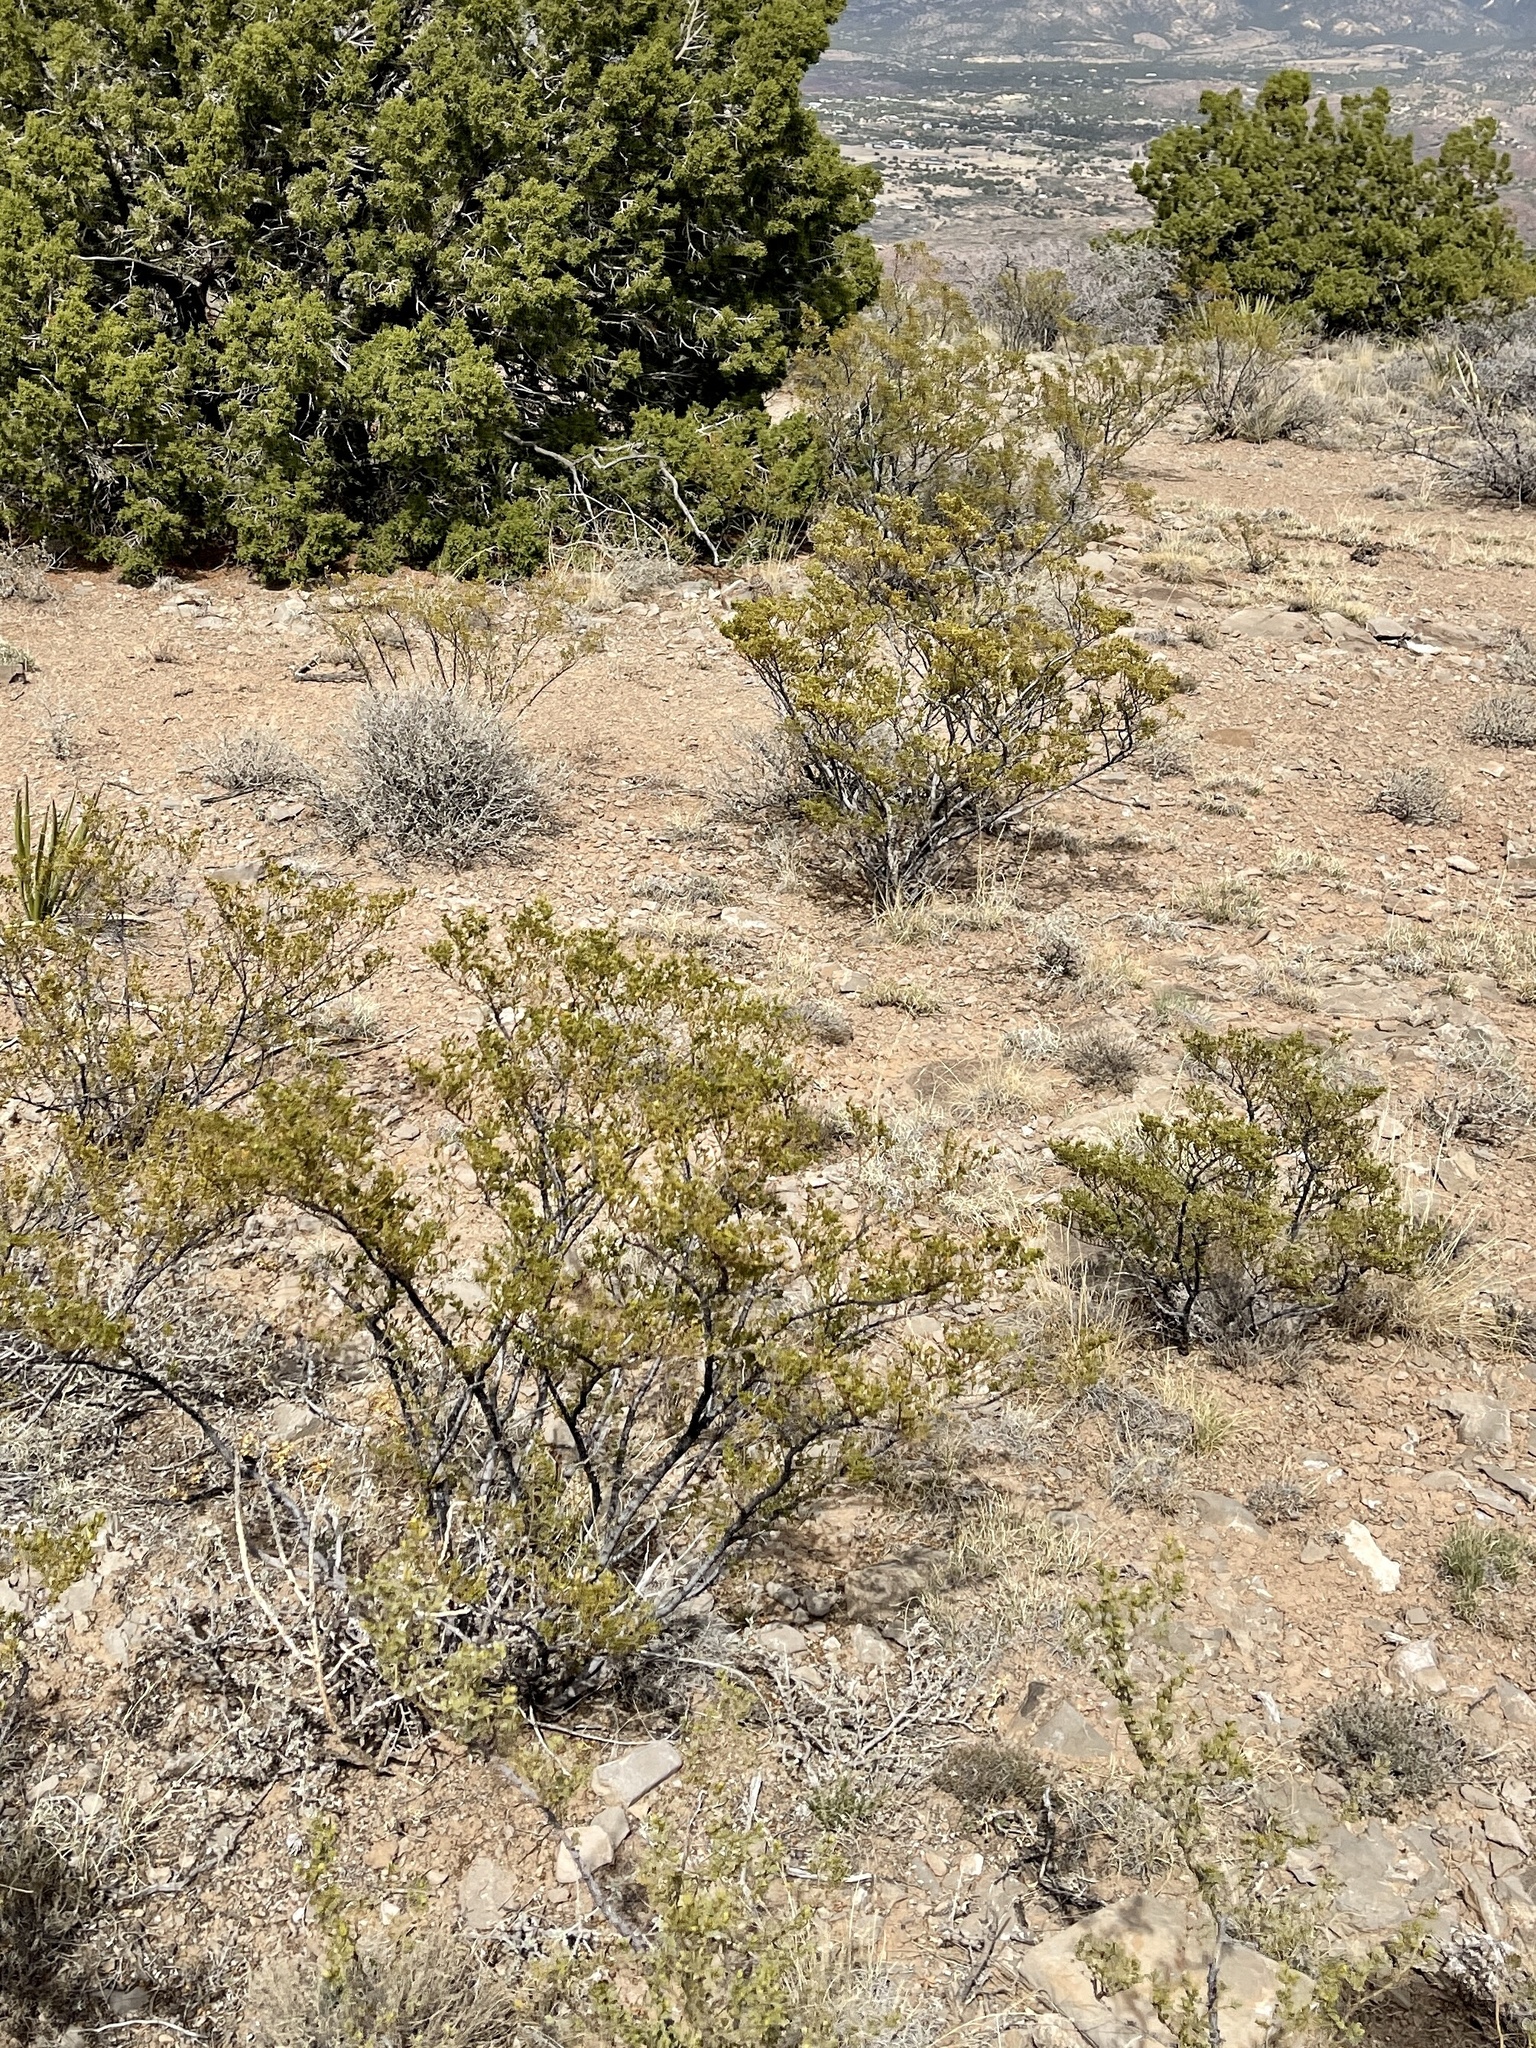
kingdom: Plantae
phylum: Tracheophyta
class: Magnoliopsida
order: Zygophyllales
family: Zygophyllaceae
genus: Larrea
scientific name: Larrea tridentata
